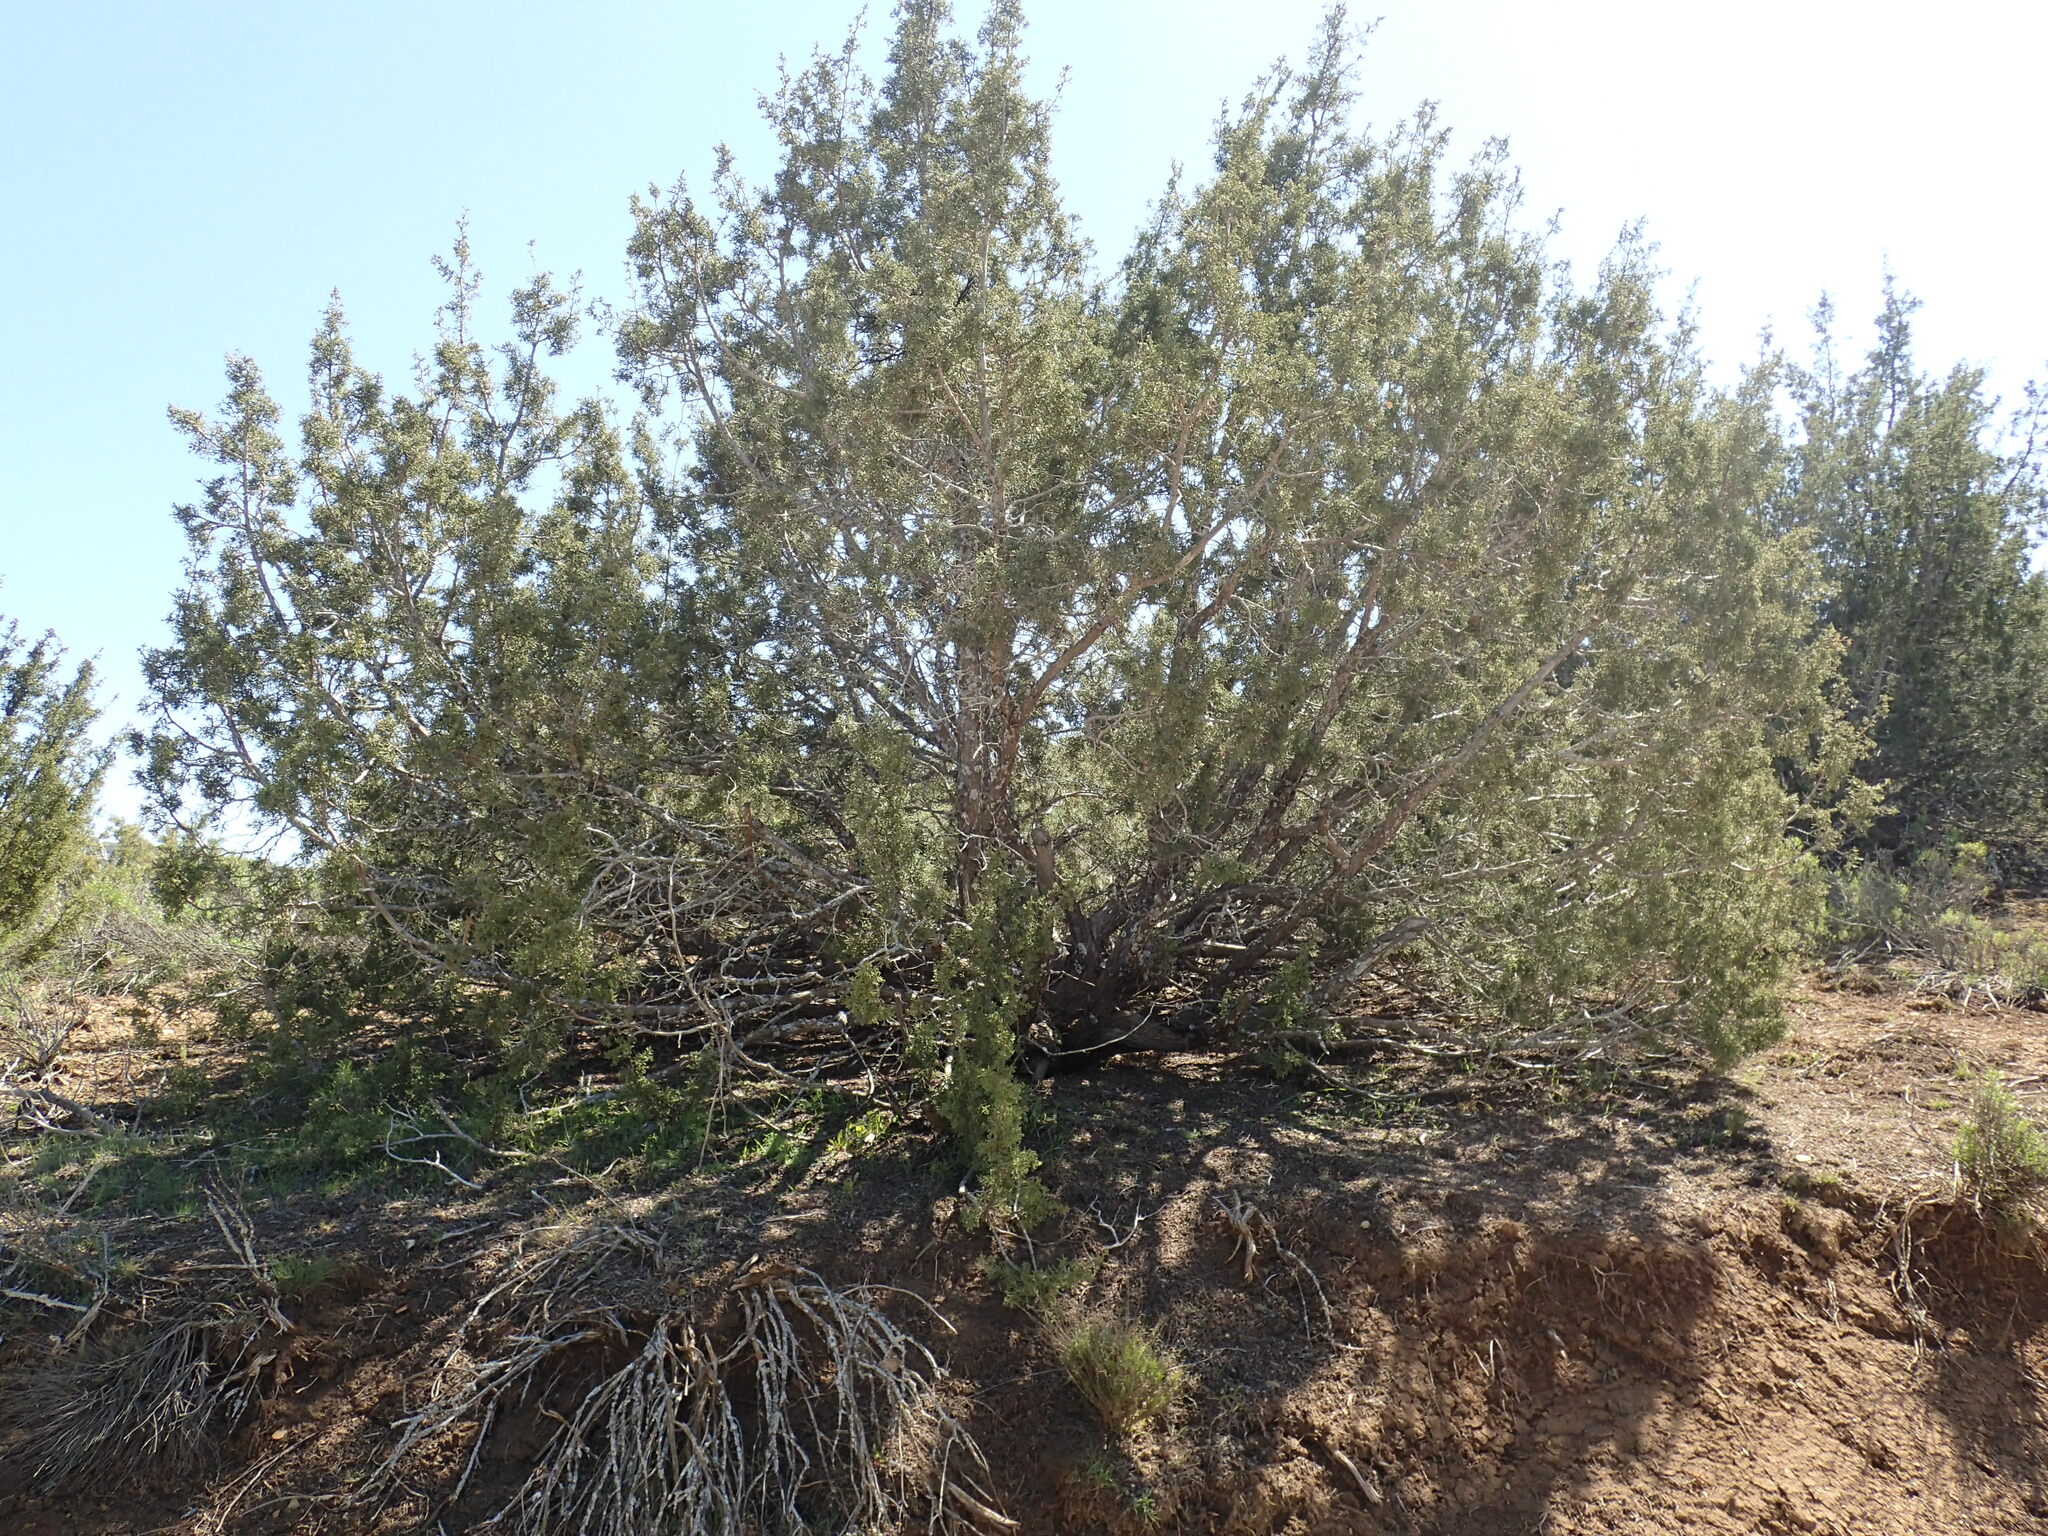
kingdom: Fungi
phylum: Ascomycota
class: Pezizomycetes
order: Pezizales
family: Sarcoscyphaceae
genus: Pithya
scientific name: Pithya cupressina
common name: Juniper disco
